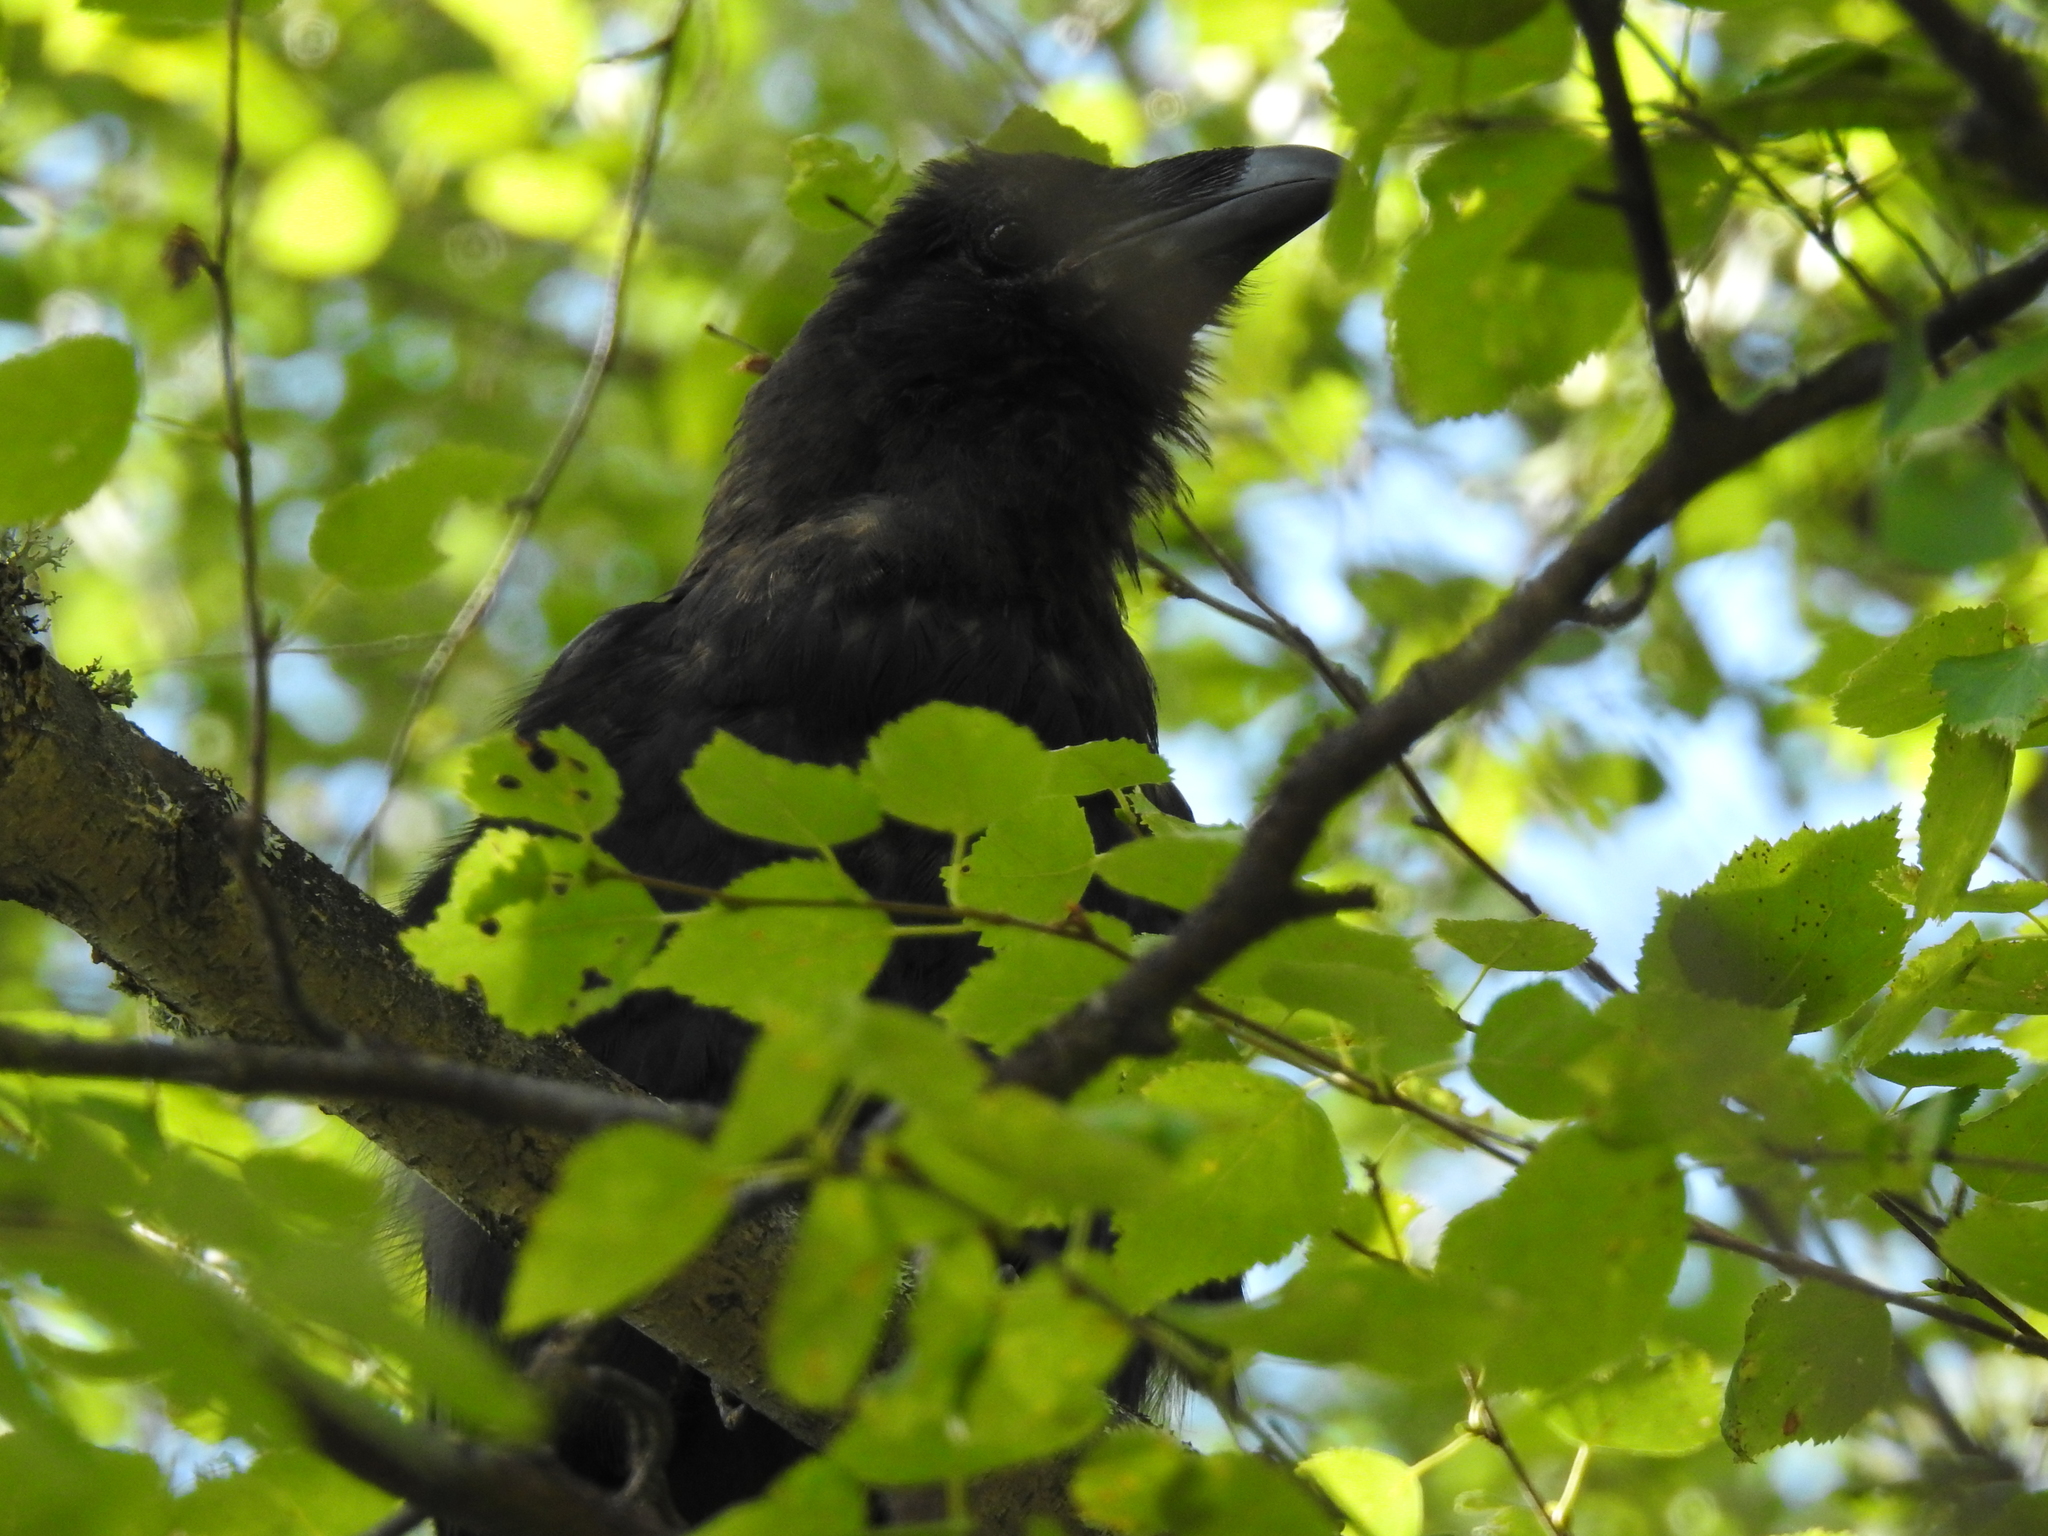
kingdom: Animalia
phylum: Chordata
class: Aves
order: Passeriformes
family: Corvidae
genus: Corvus
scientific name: Corvus corax
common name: Common raven
